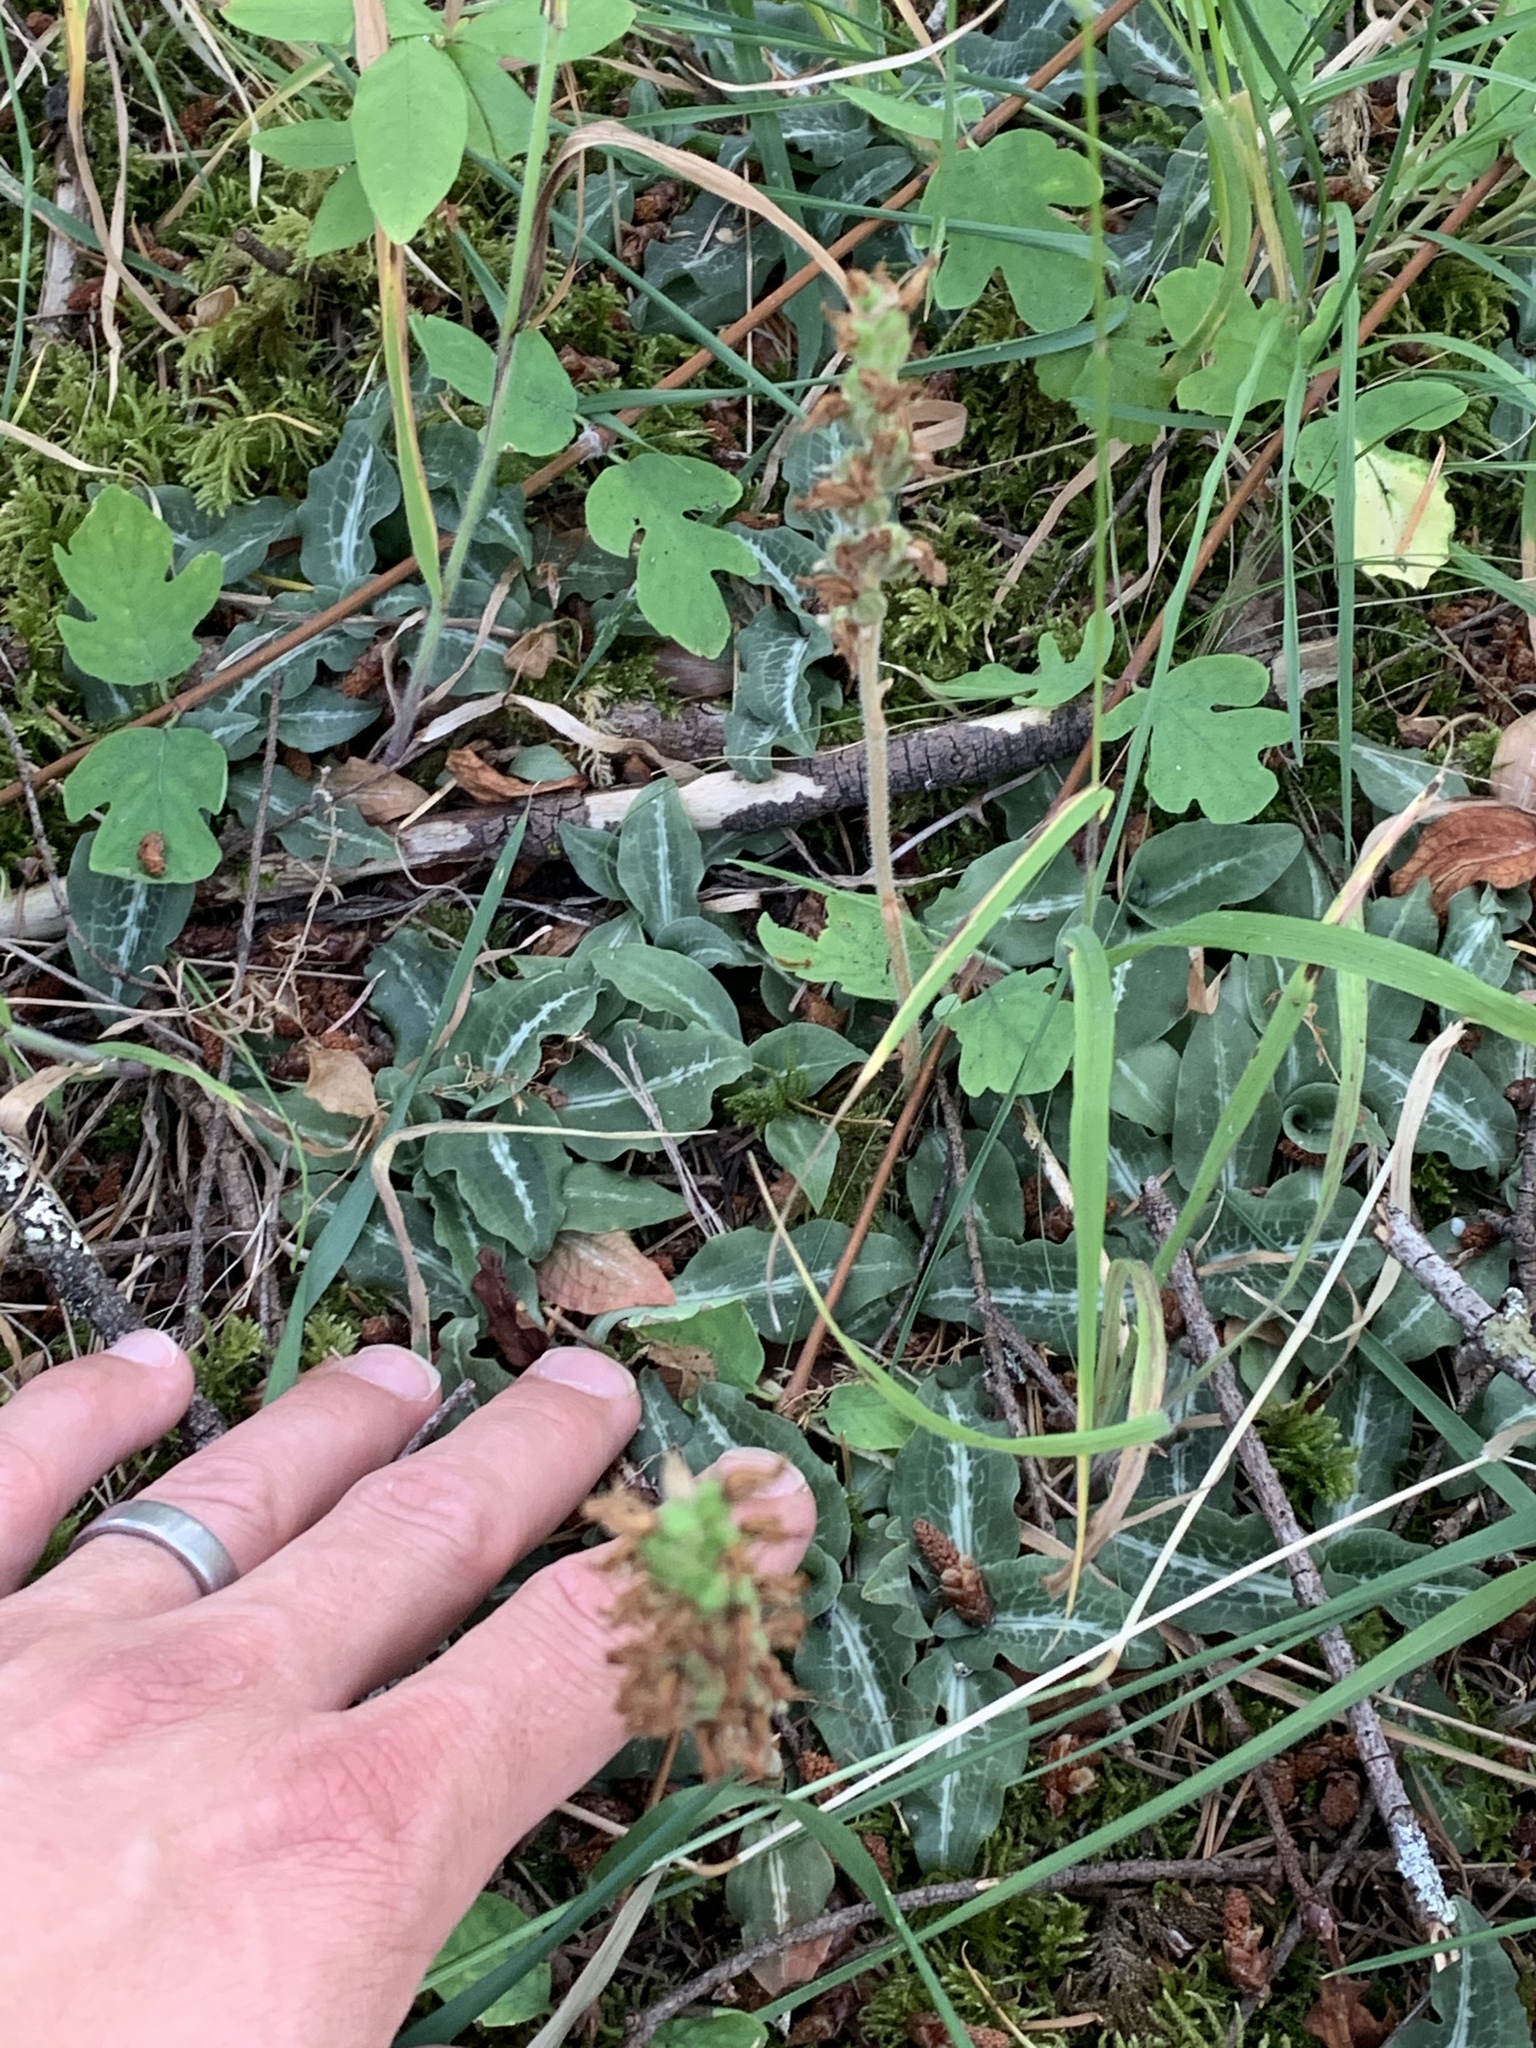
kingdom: Plantae
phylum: Tracheophyta
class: Liliopsida
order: Asparagales
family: Orchidaceae
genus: Goodyera
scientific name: Goodyera oblongifolia
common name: Giant rattlesnake-plantain
